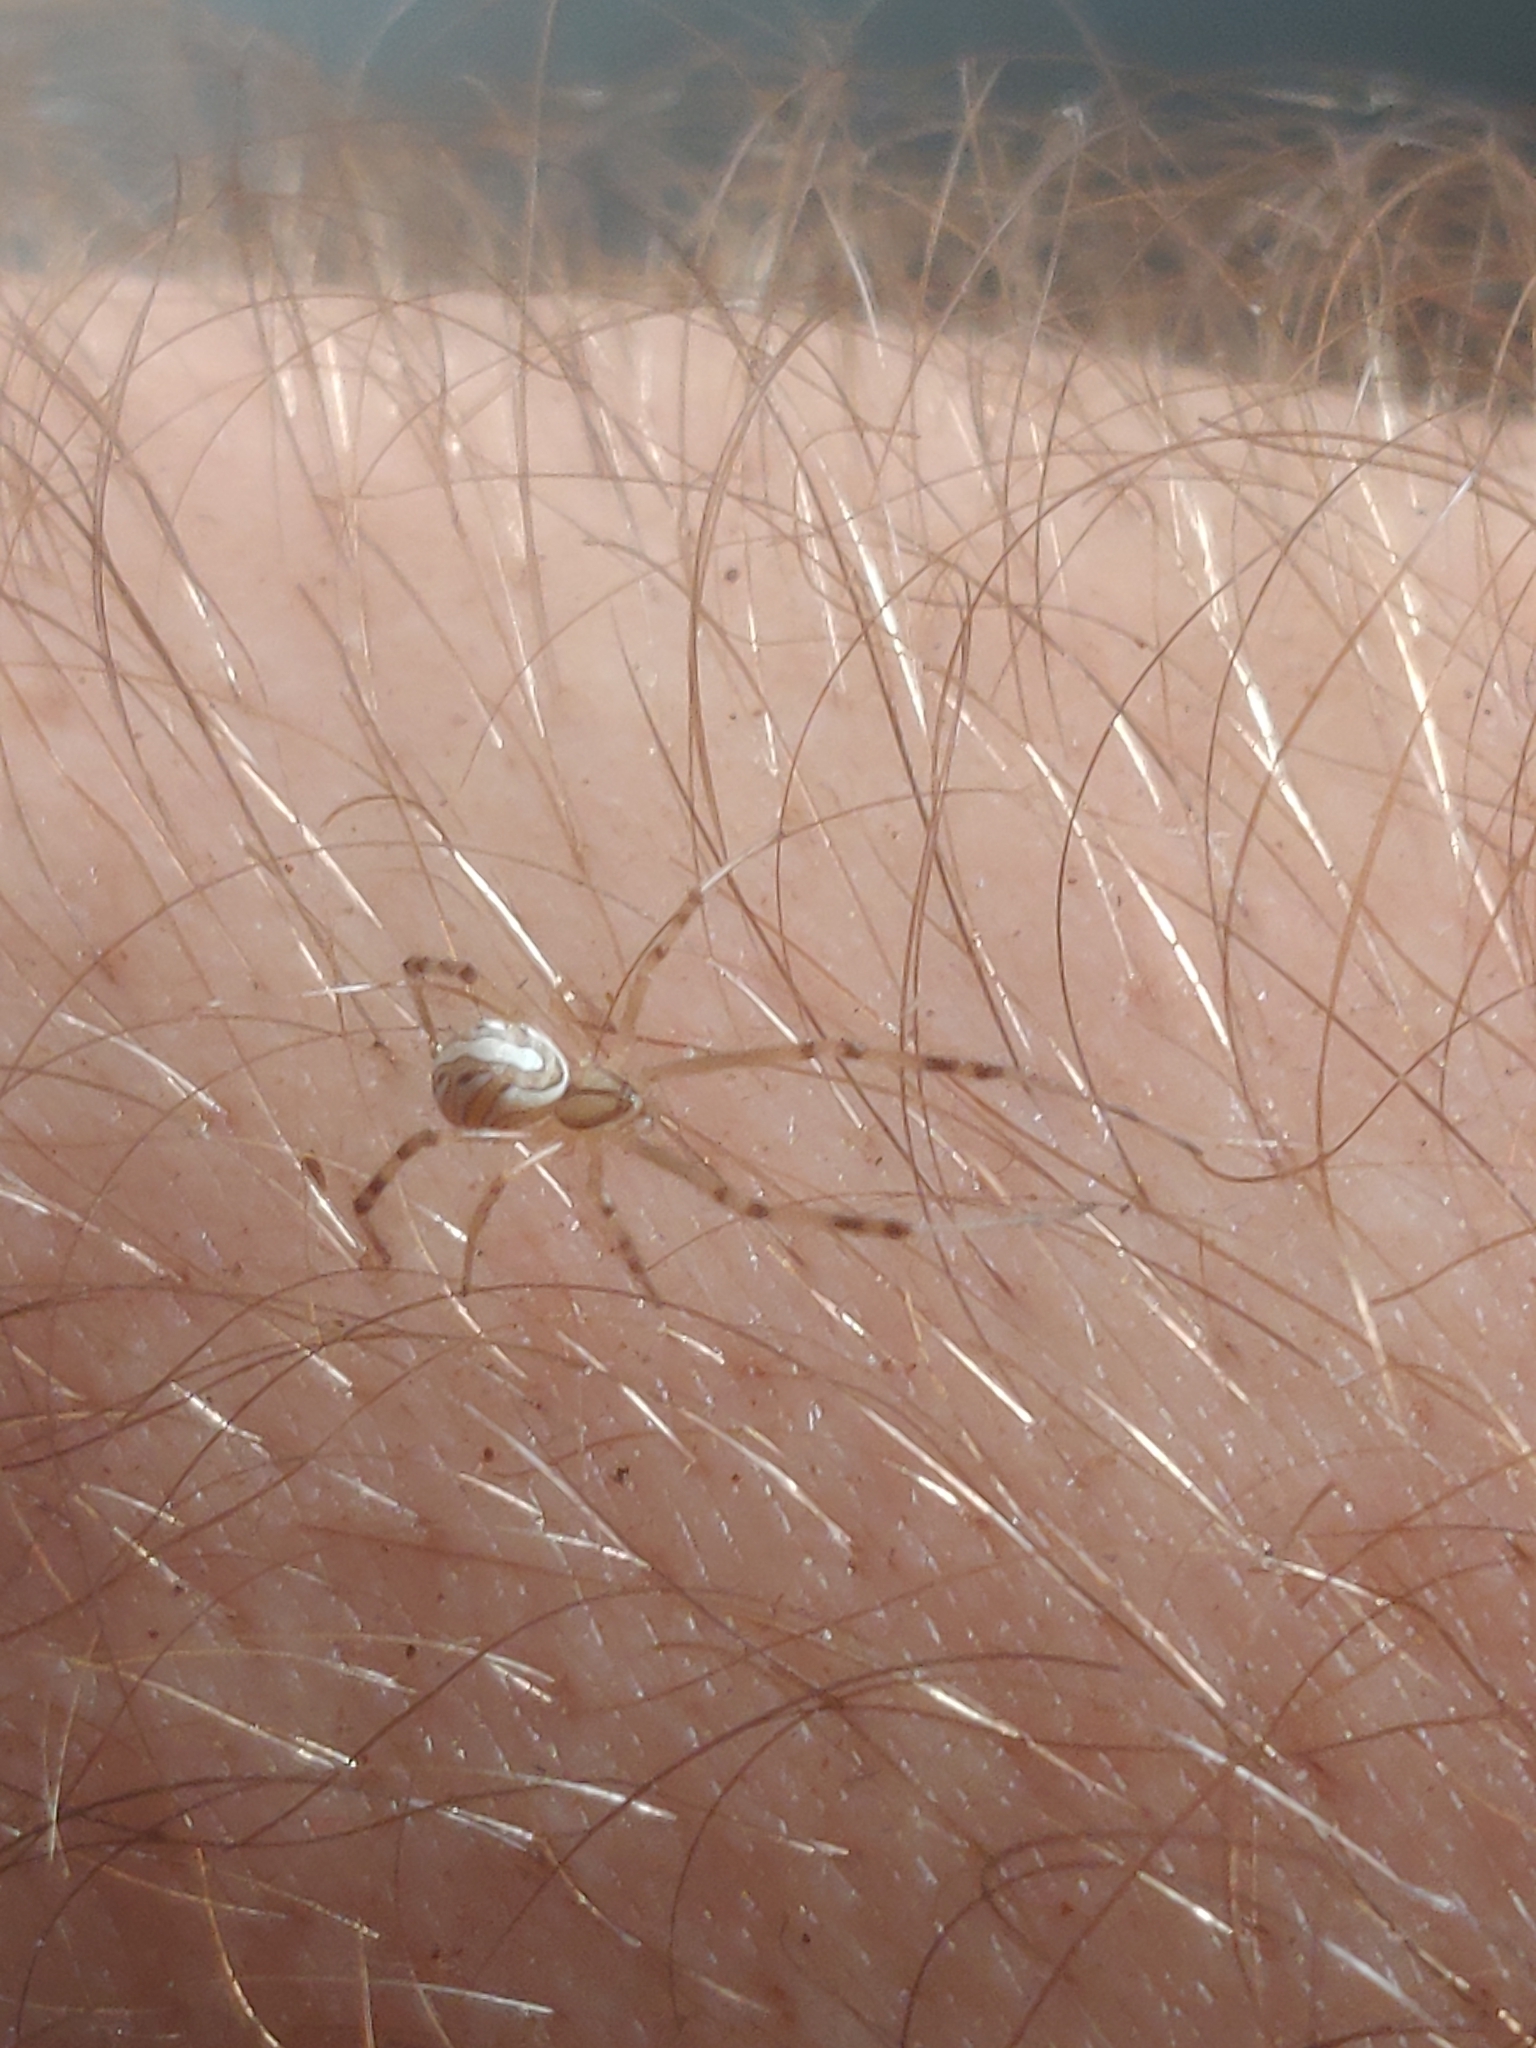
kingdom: Animalia
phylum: Arthropoda
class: Arachnida
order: Araneae
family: Theridiidae
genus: Latrodectus
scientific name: Latrodectus hesperus
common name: Western black widow
